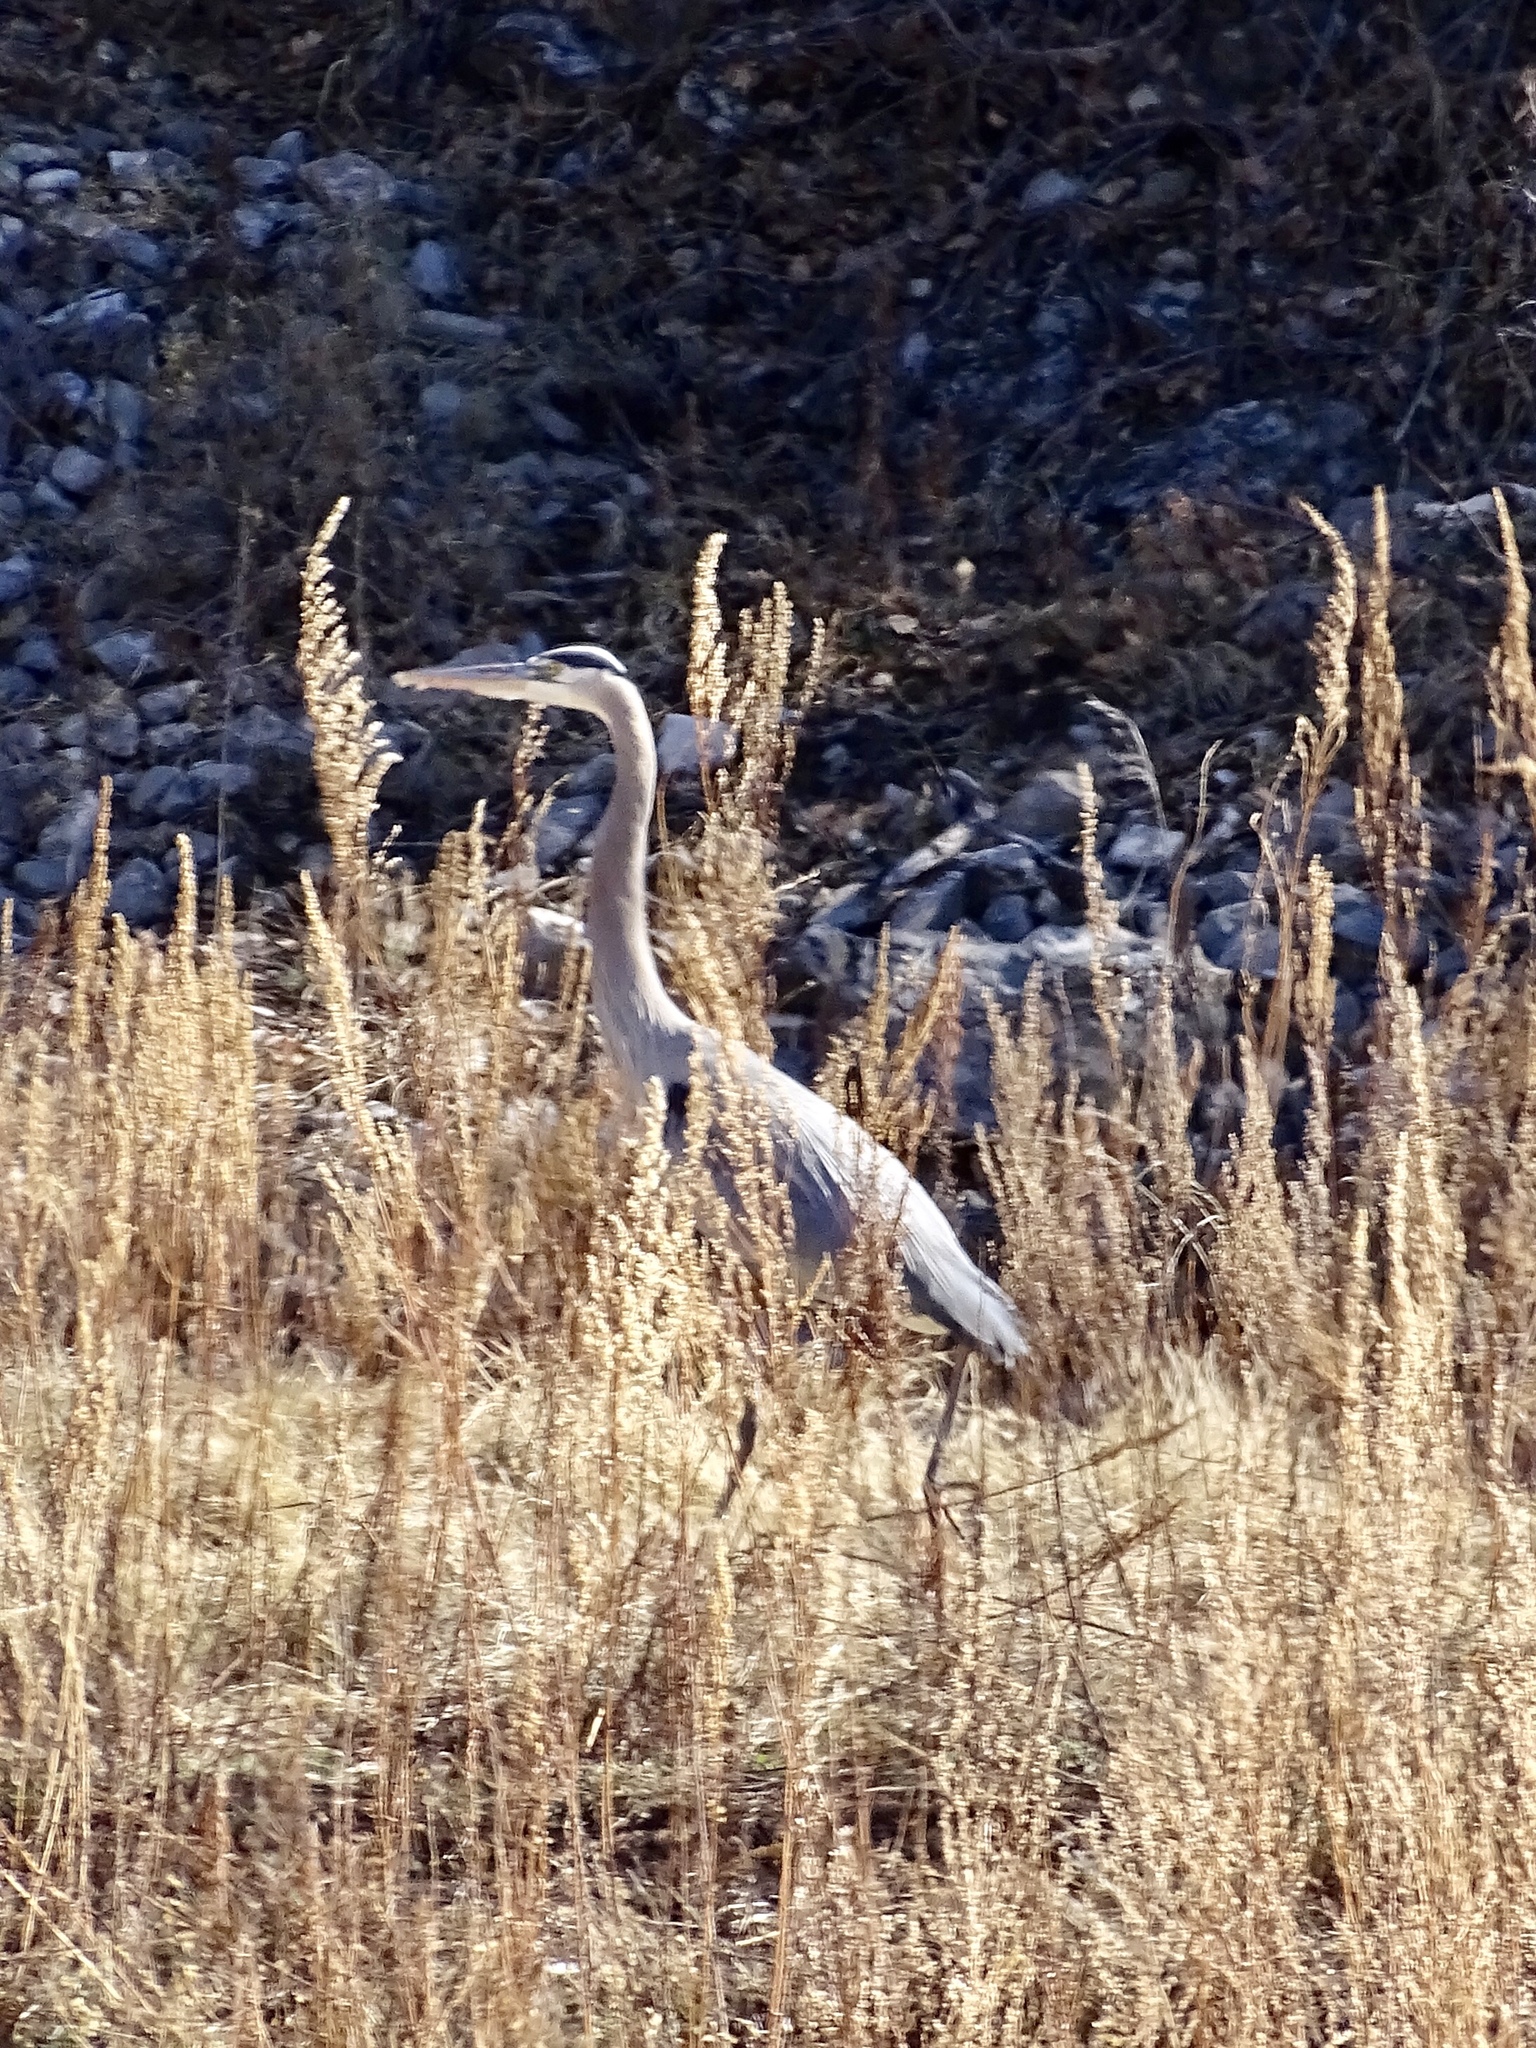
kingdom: Animalia
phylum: Chordata
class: Aves
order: Pelecaniformes
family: Ardeidae
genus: Ardea
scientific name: Ardea herodias
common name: Great blue heron
